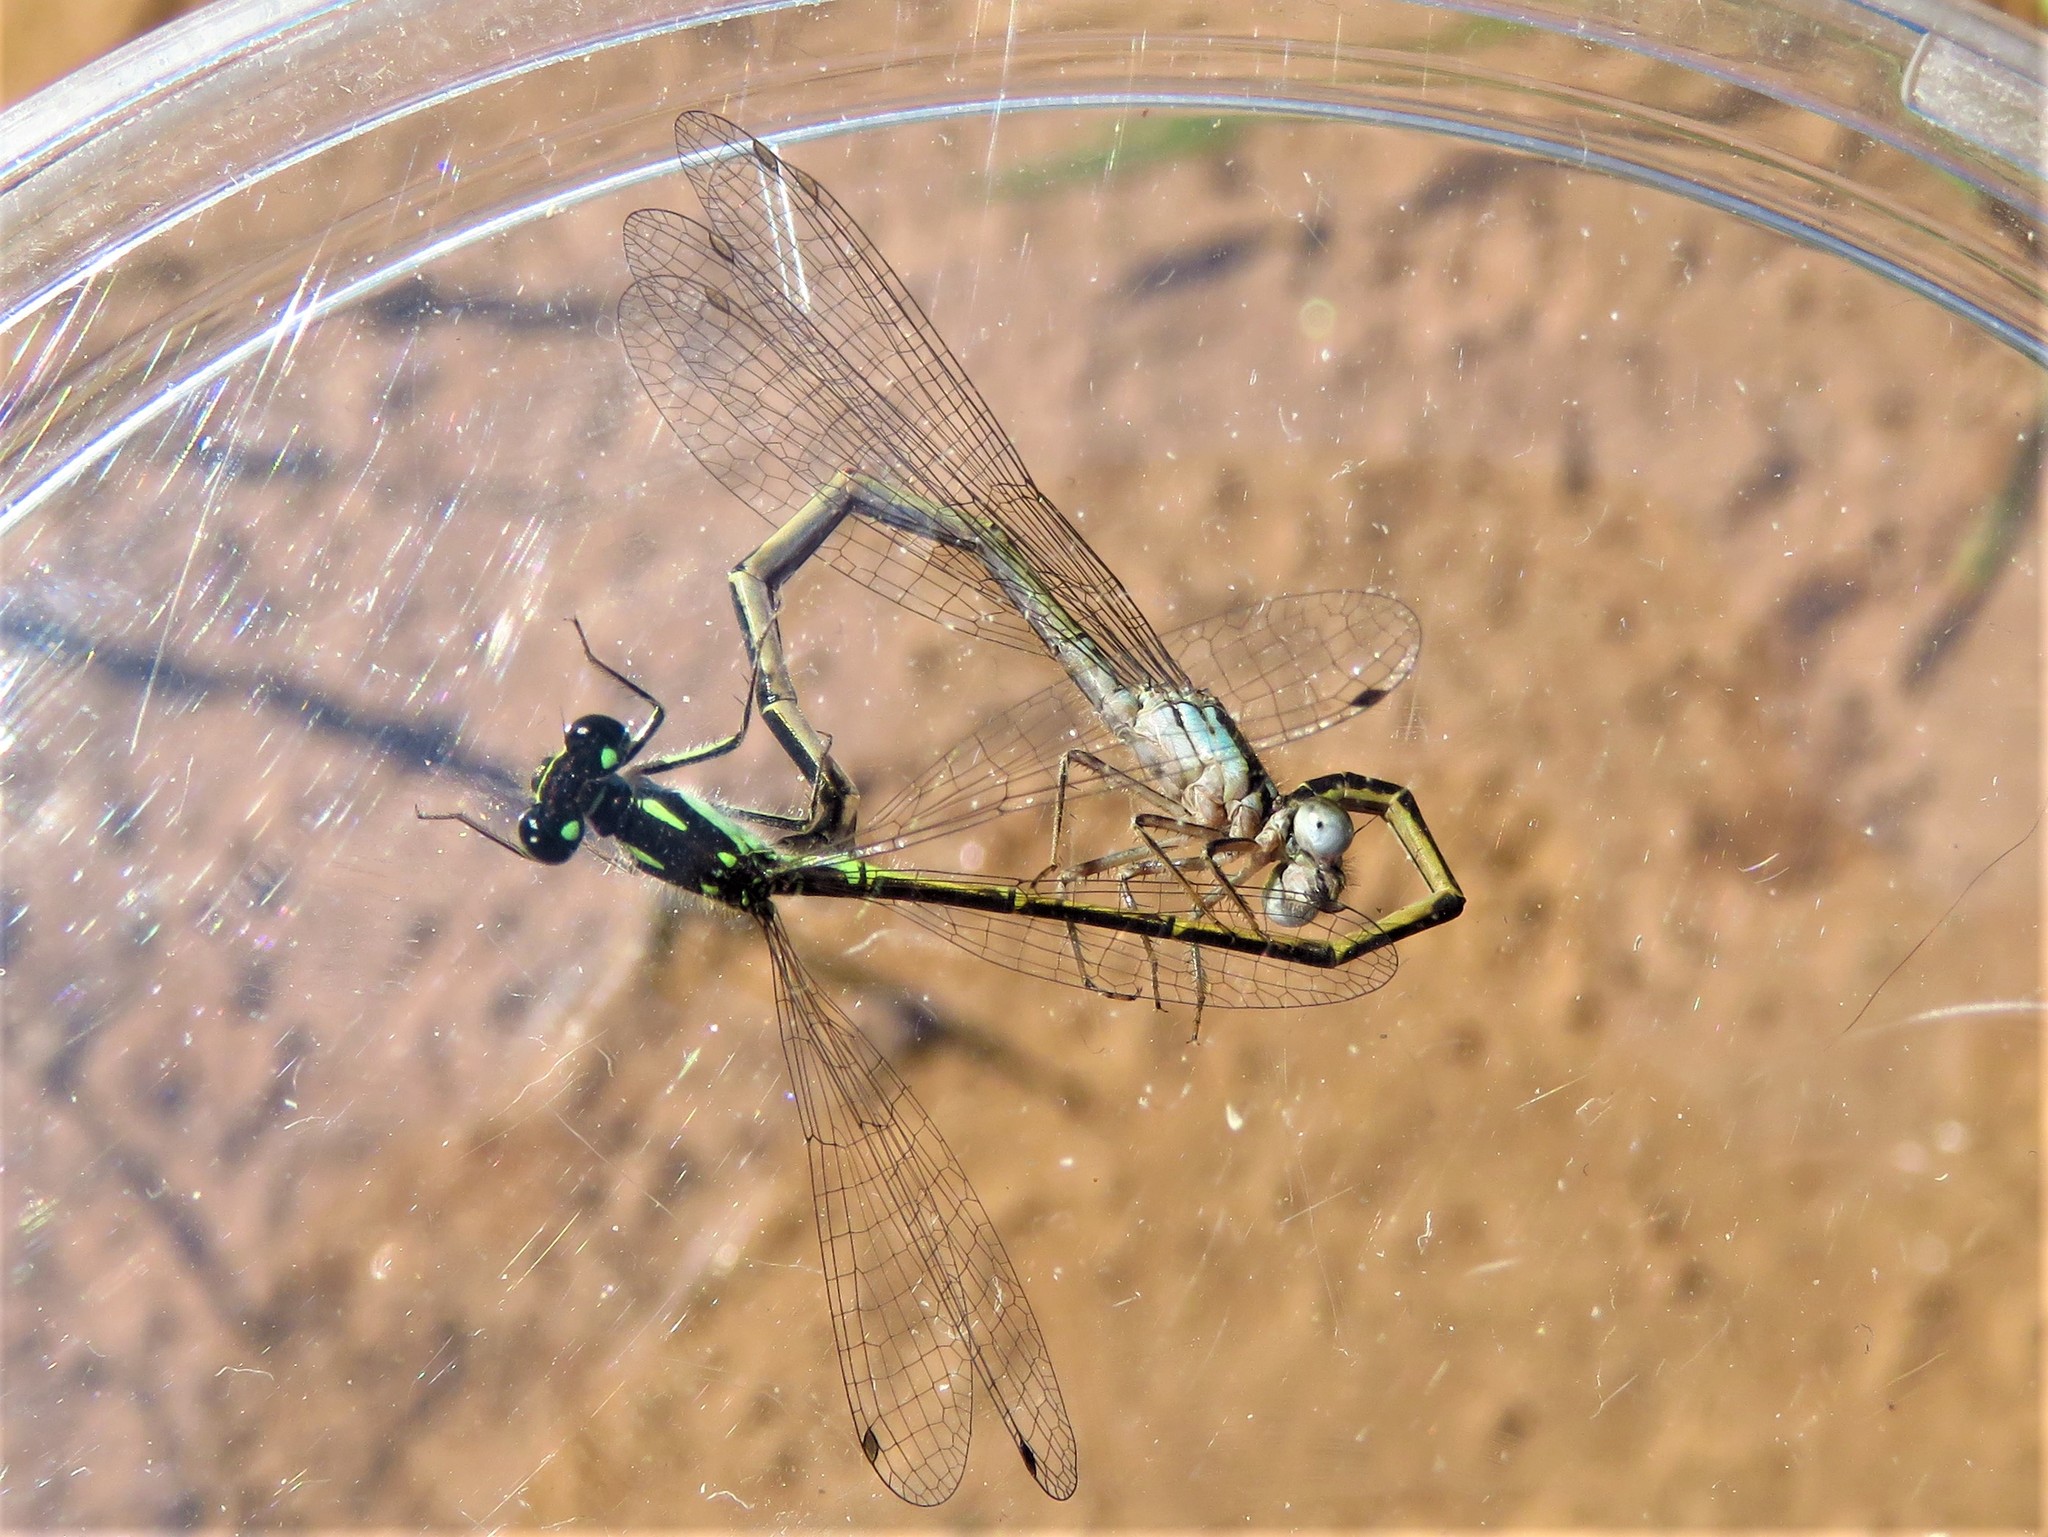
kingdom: Animalia
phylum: Arthropoda
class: Insecta
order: Odonata
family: Coenagrionidae
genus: Ischnura
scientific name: Ischnura posita
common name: Fragile forktail
